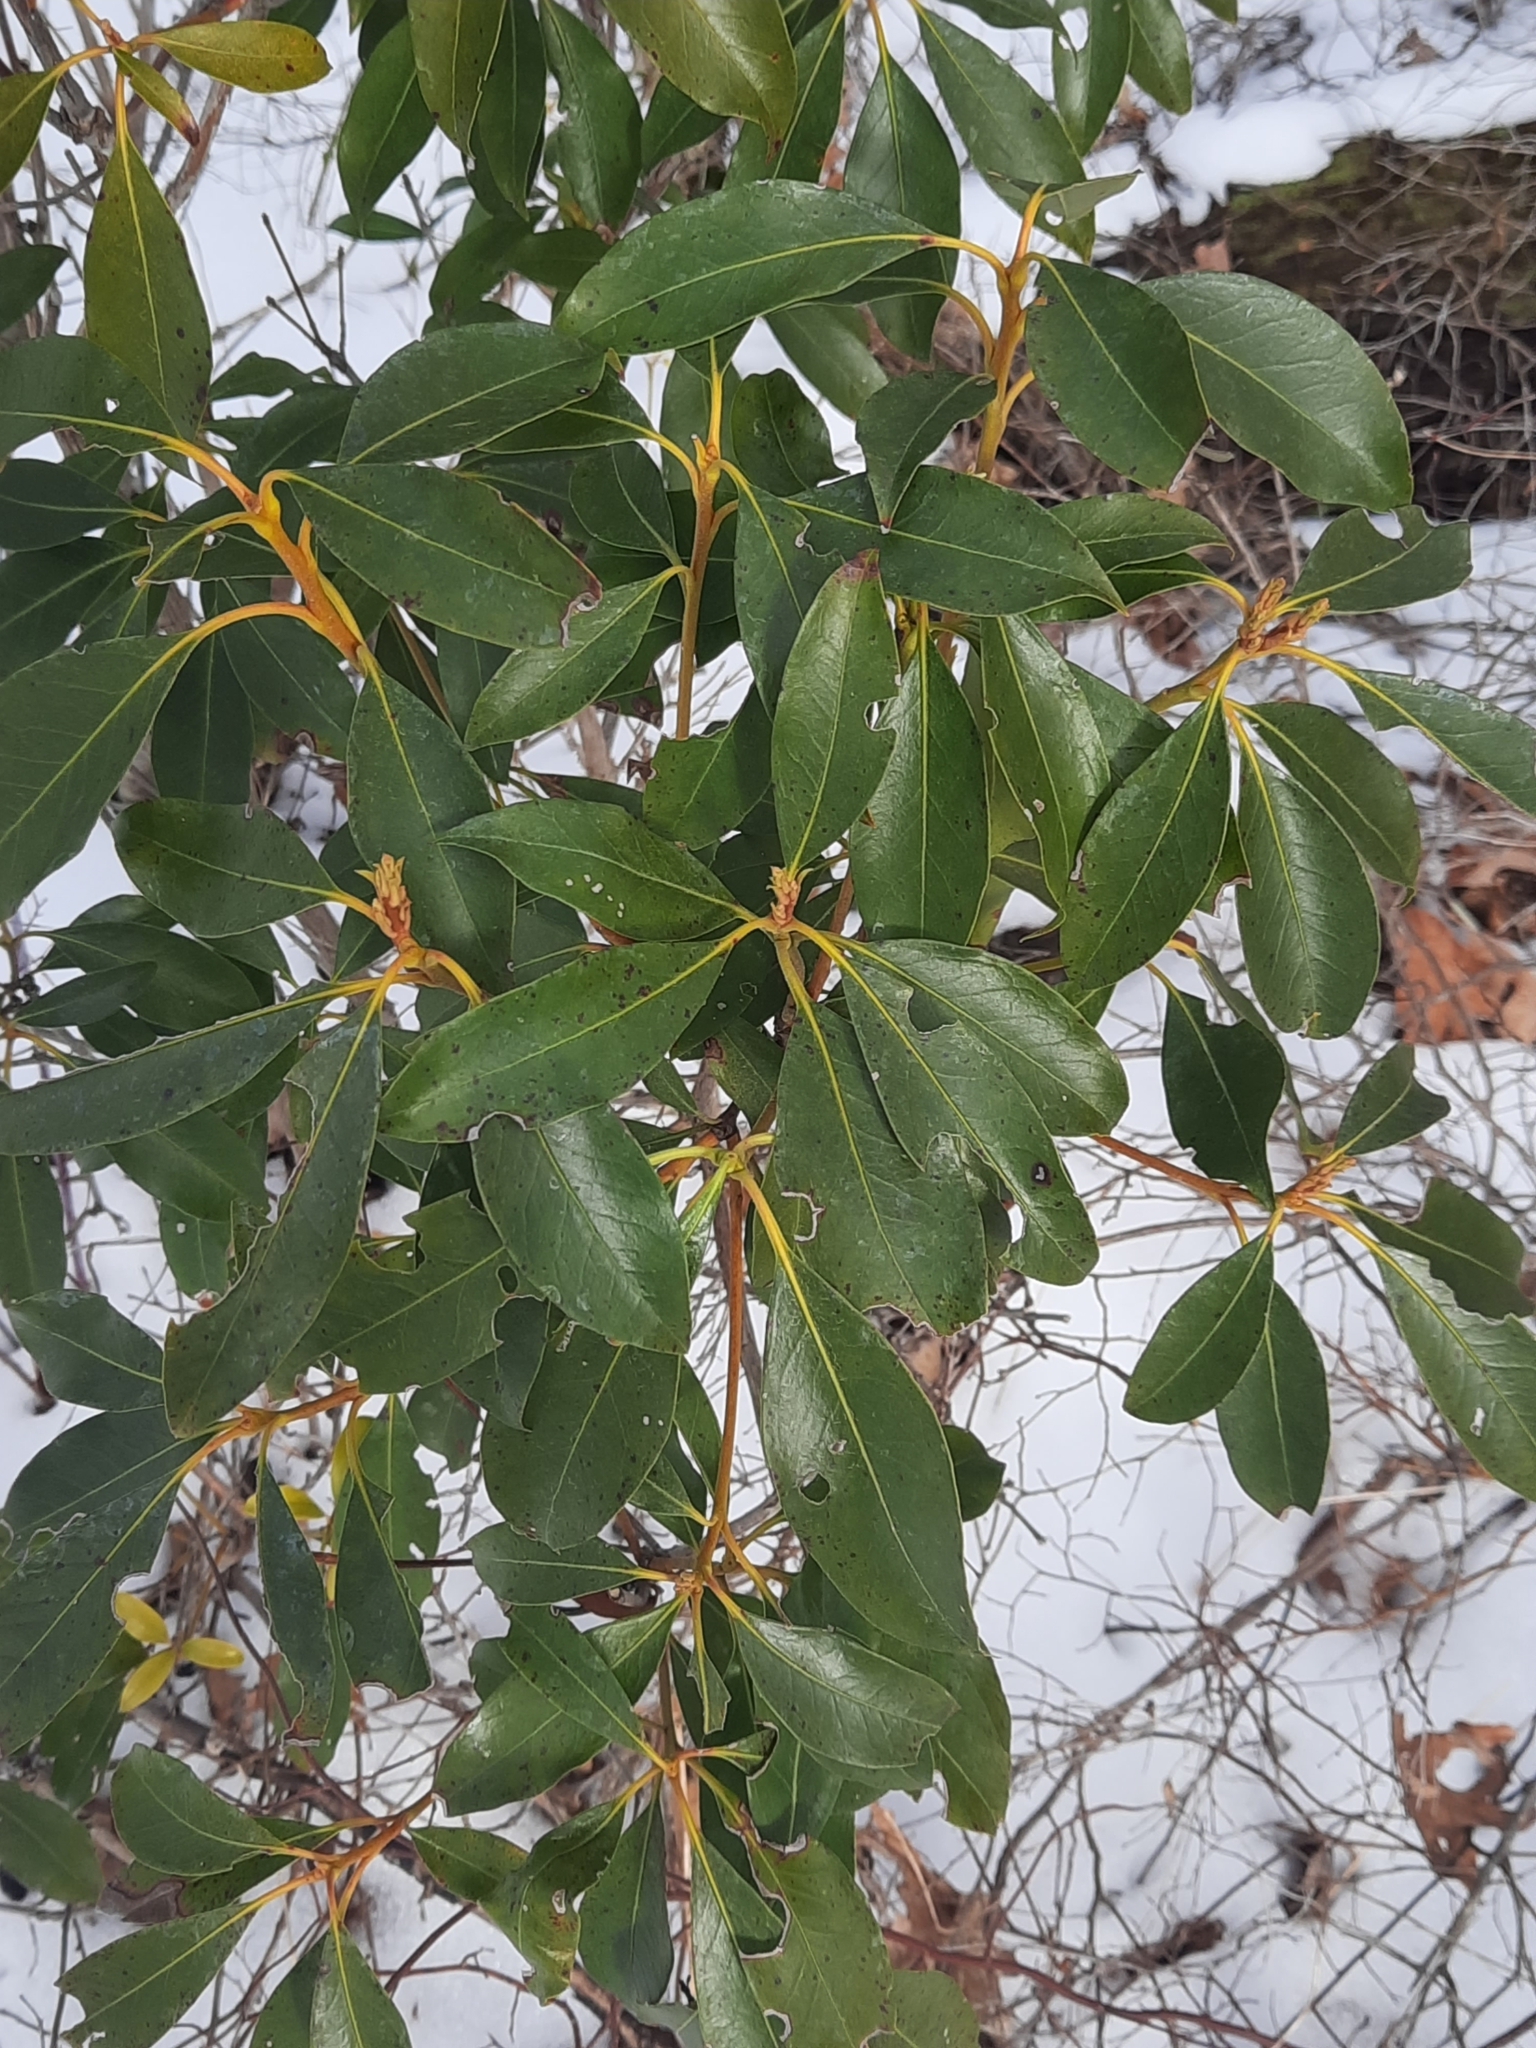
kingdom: Plantae
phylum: Tracheophyta
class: Magnoliopsida
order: Ericales
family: Ericaceae
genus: Kalmia
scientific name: Kalmia latifolia
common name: Mountain-laurel
